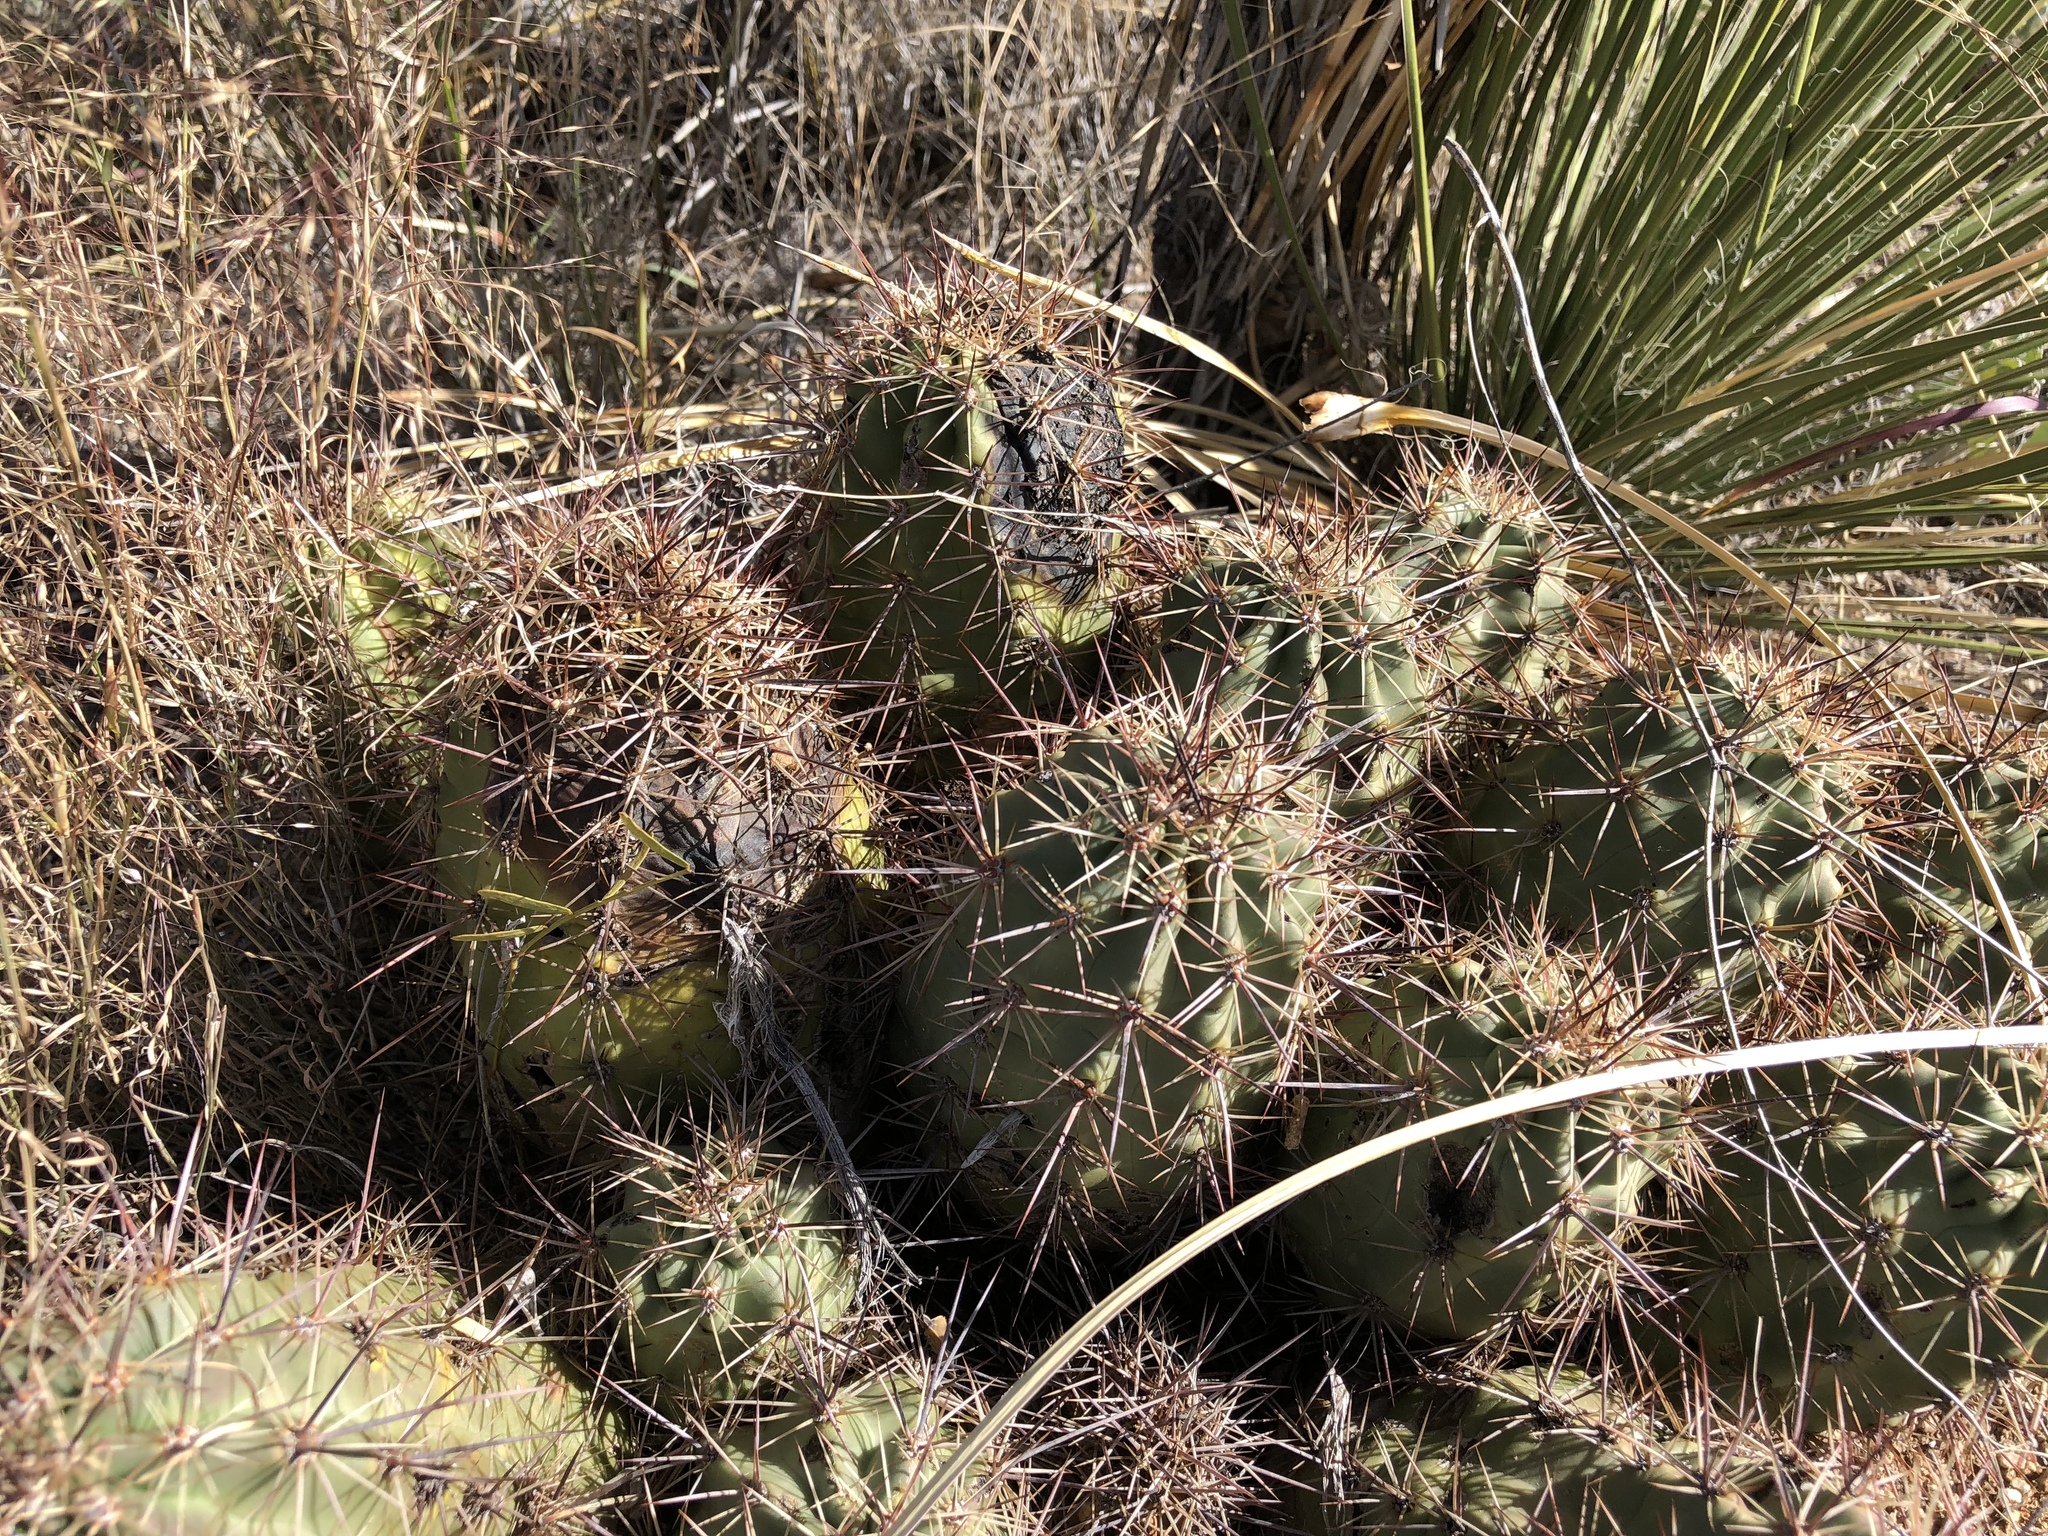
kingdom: Plantae
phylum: Tracheophyta
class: Magnoliopsida
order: Caryophyllales
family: Cactaceae
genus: Echinocereus
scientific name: Echinocereus coccineus
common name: Scarlet hedgehog cactus
